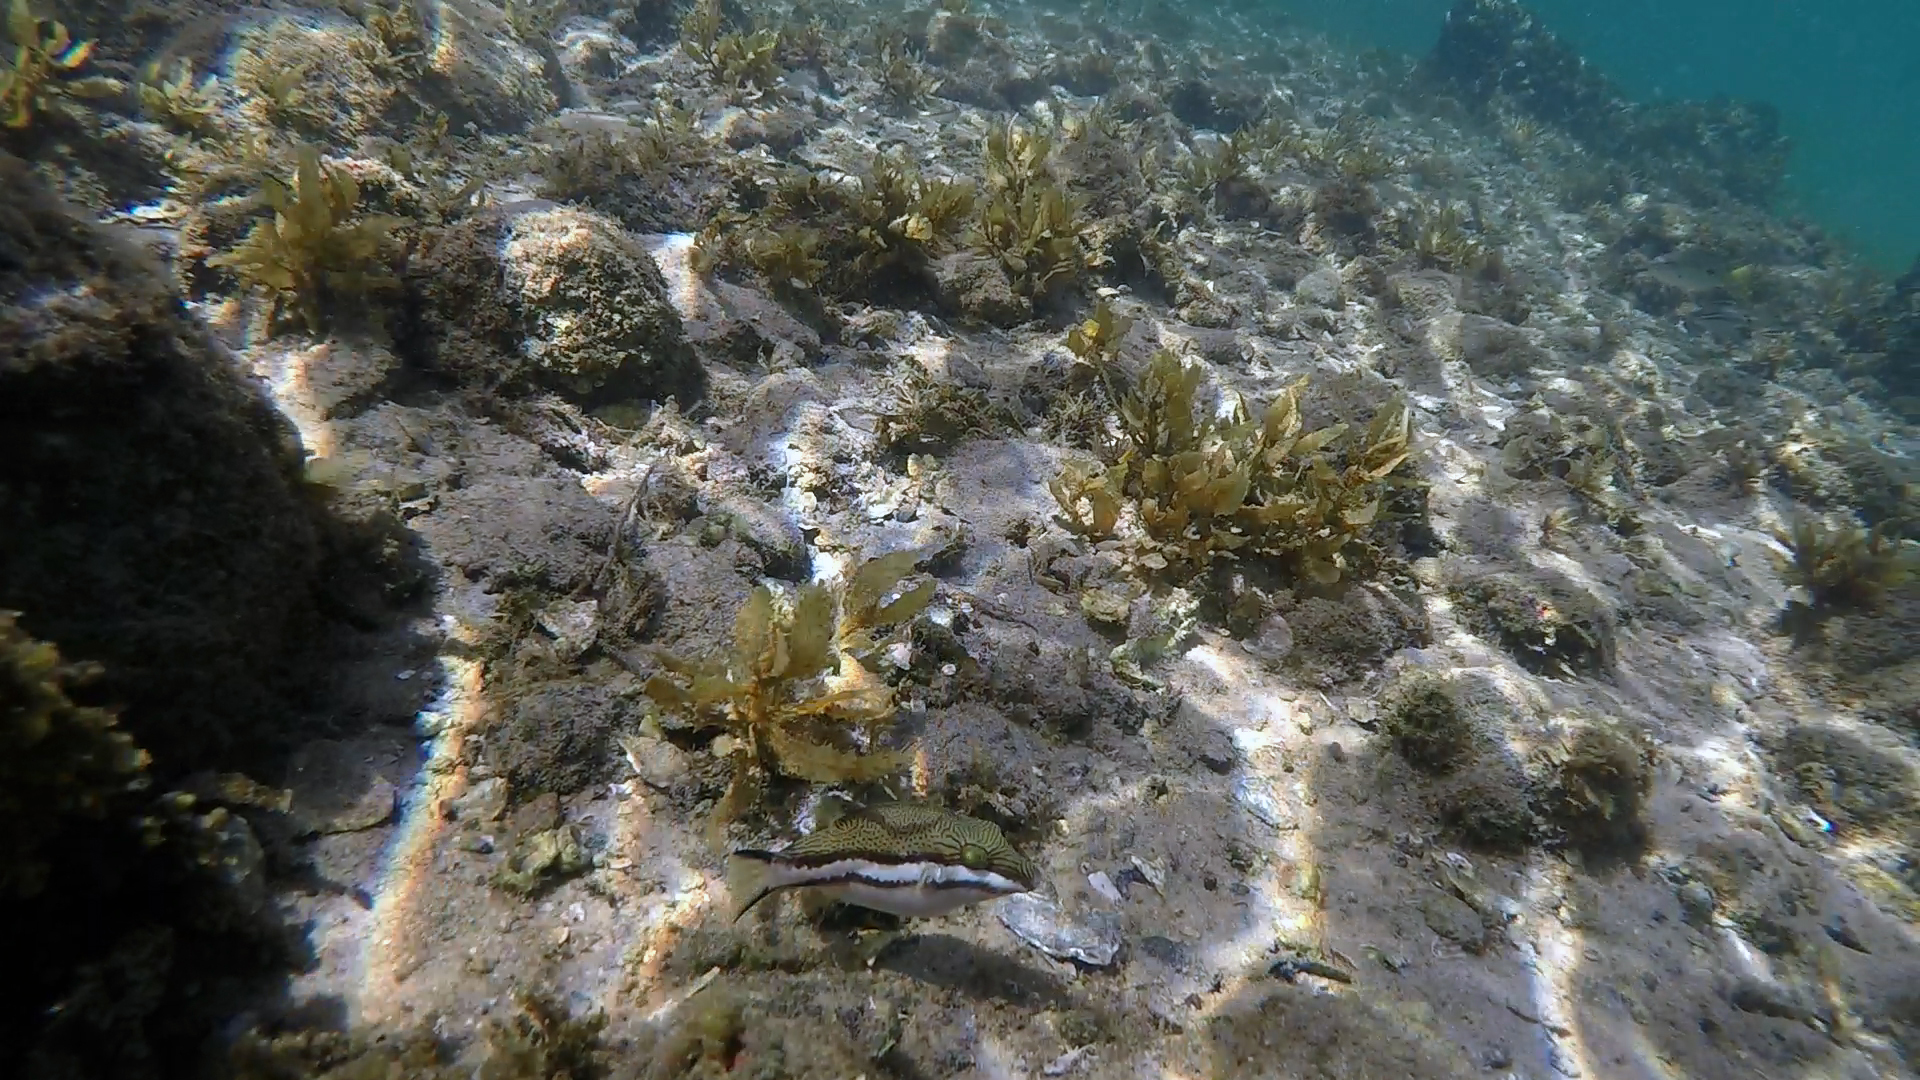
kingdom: Animalia
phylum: Chordata
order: Tetraodontiformes
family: Tetraodontidae
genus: Canthigaster
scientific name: Canthigaster callisterna
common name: Clown toado
